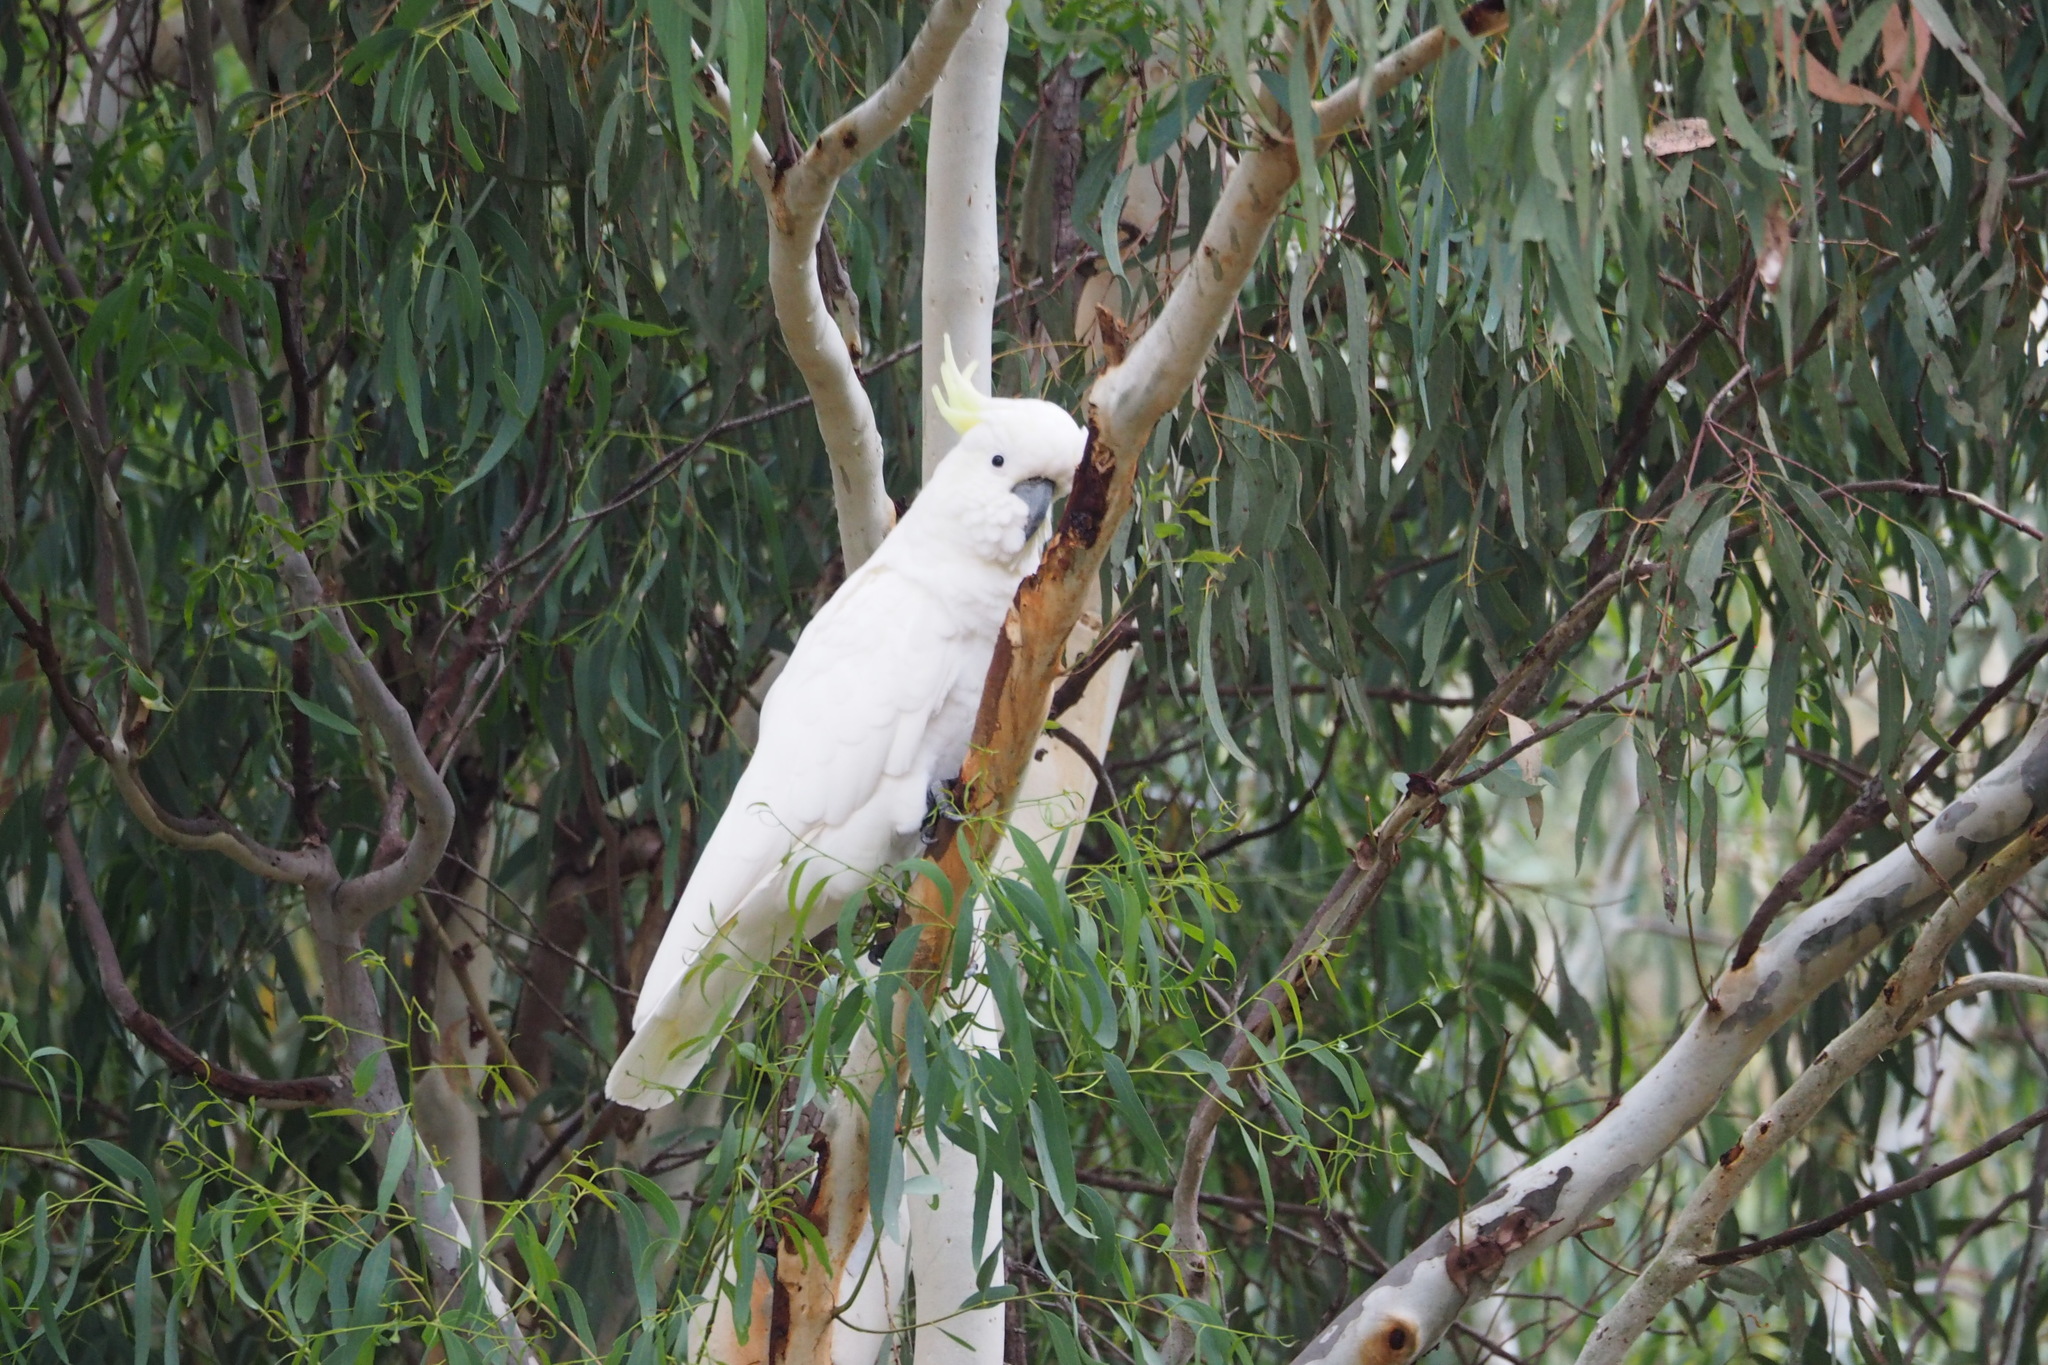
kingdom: Animalia
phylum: Chordata
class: Aves
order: Psittaciformes
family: Psittacidae
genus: Cacatua
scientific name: Cacatua galerita
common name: Sulphur-crested cockatoo
